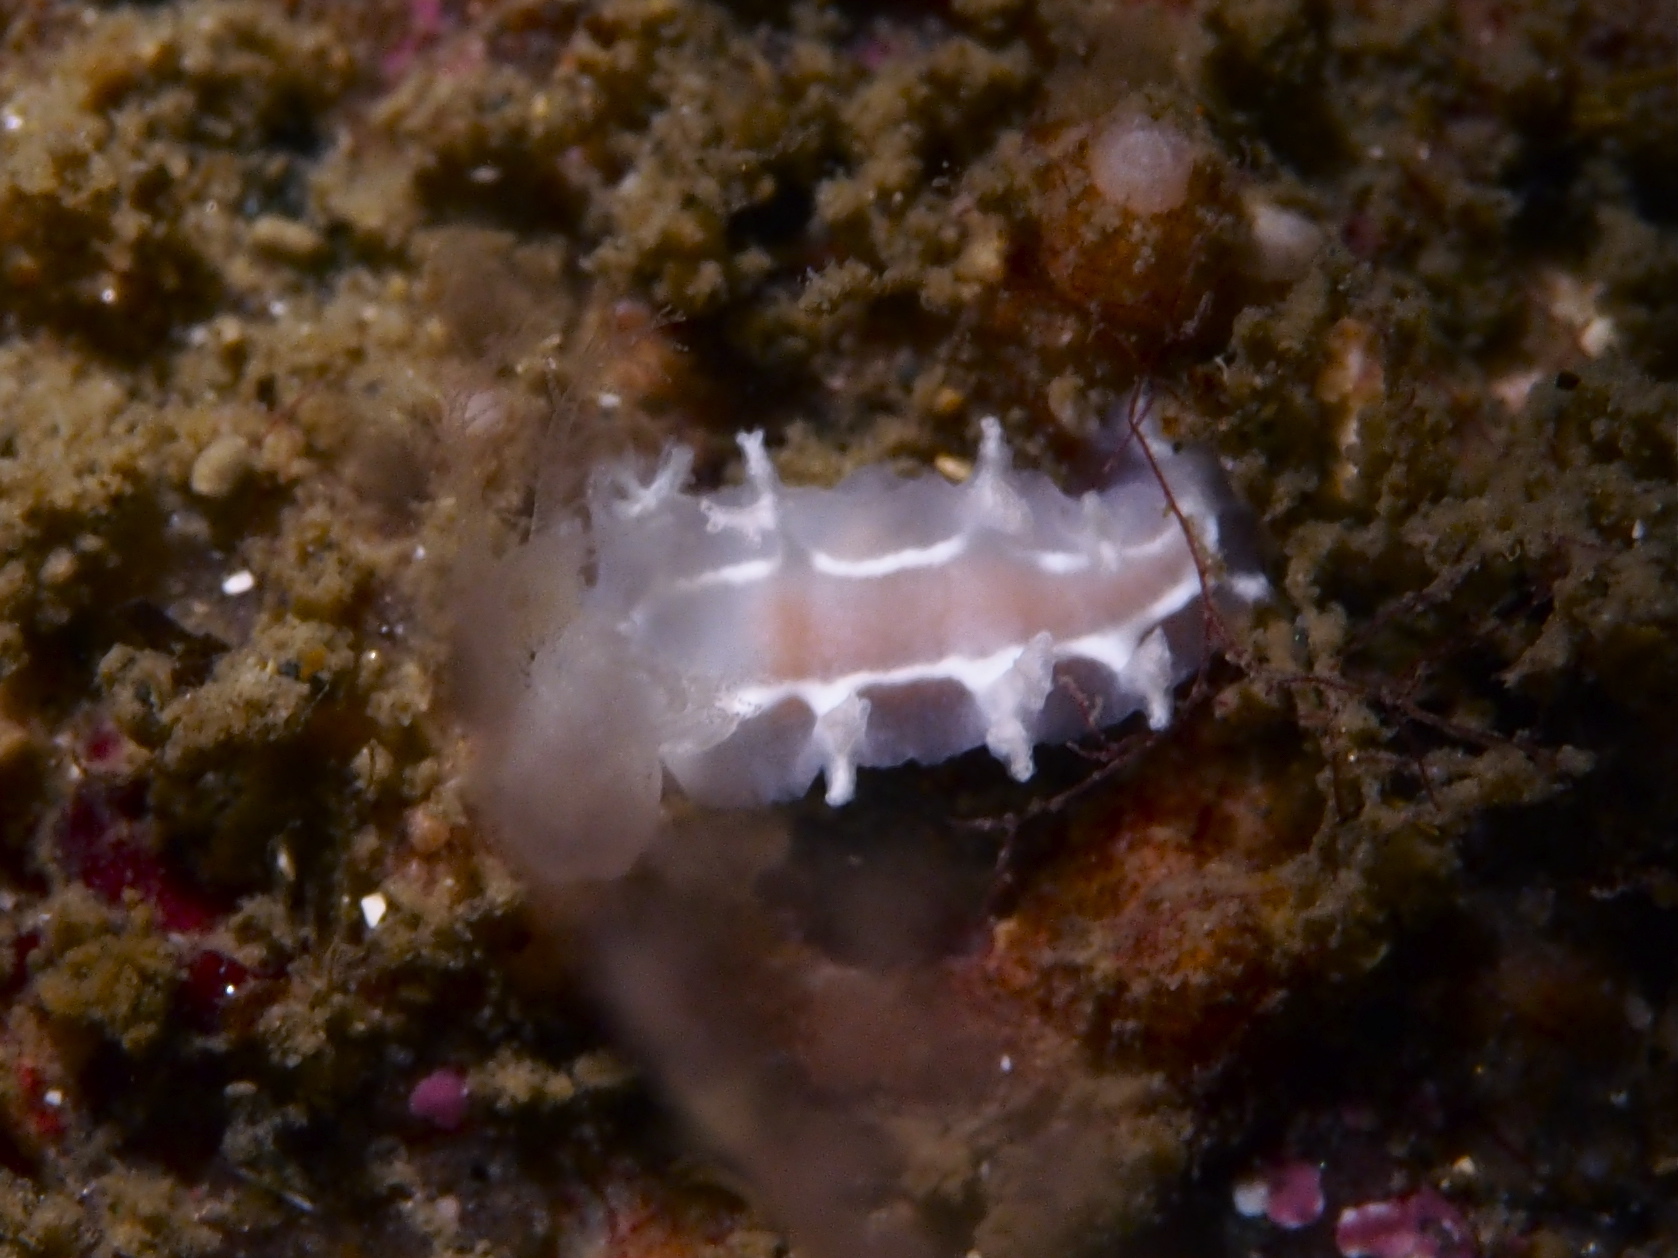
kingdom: Animalia
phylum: Mollusca
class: Gastropoda
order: Nudibranchia
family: Tritoniidae
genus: Duvaucelia
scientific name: Duvaucelia lineata
